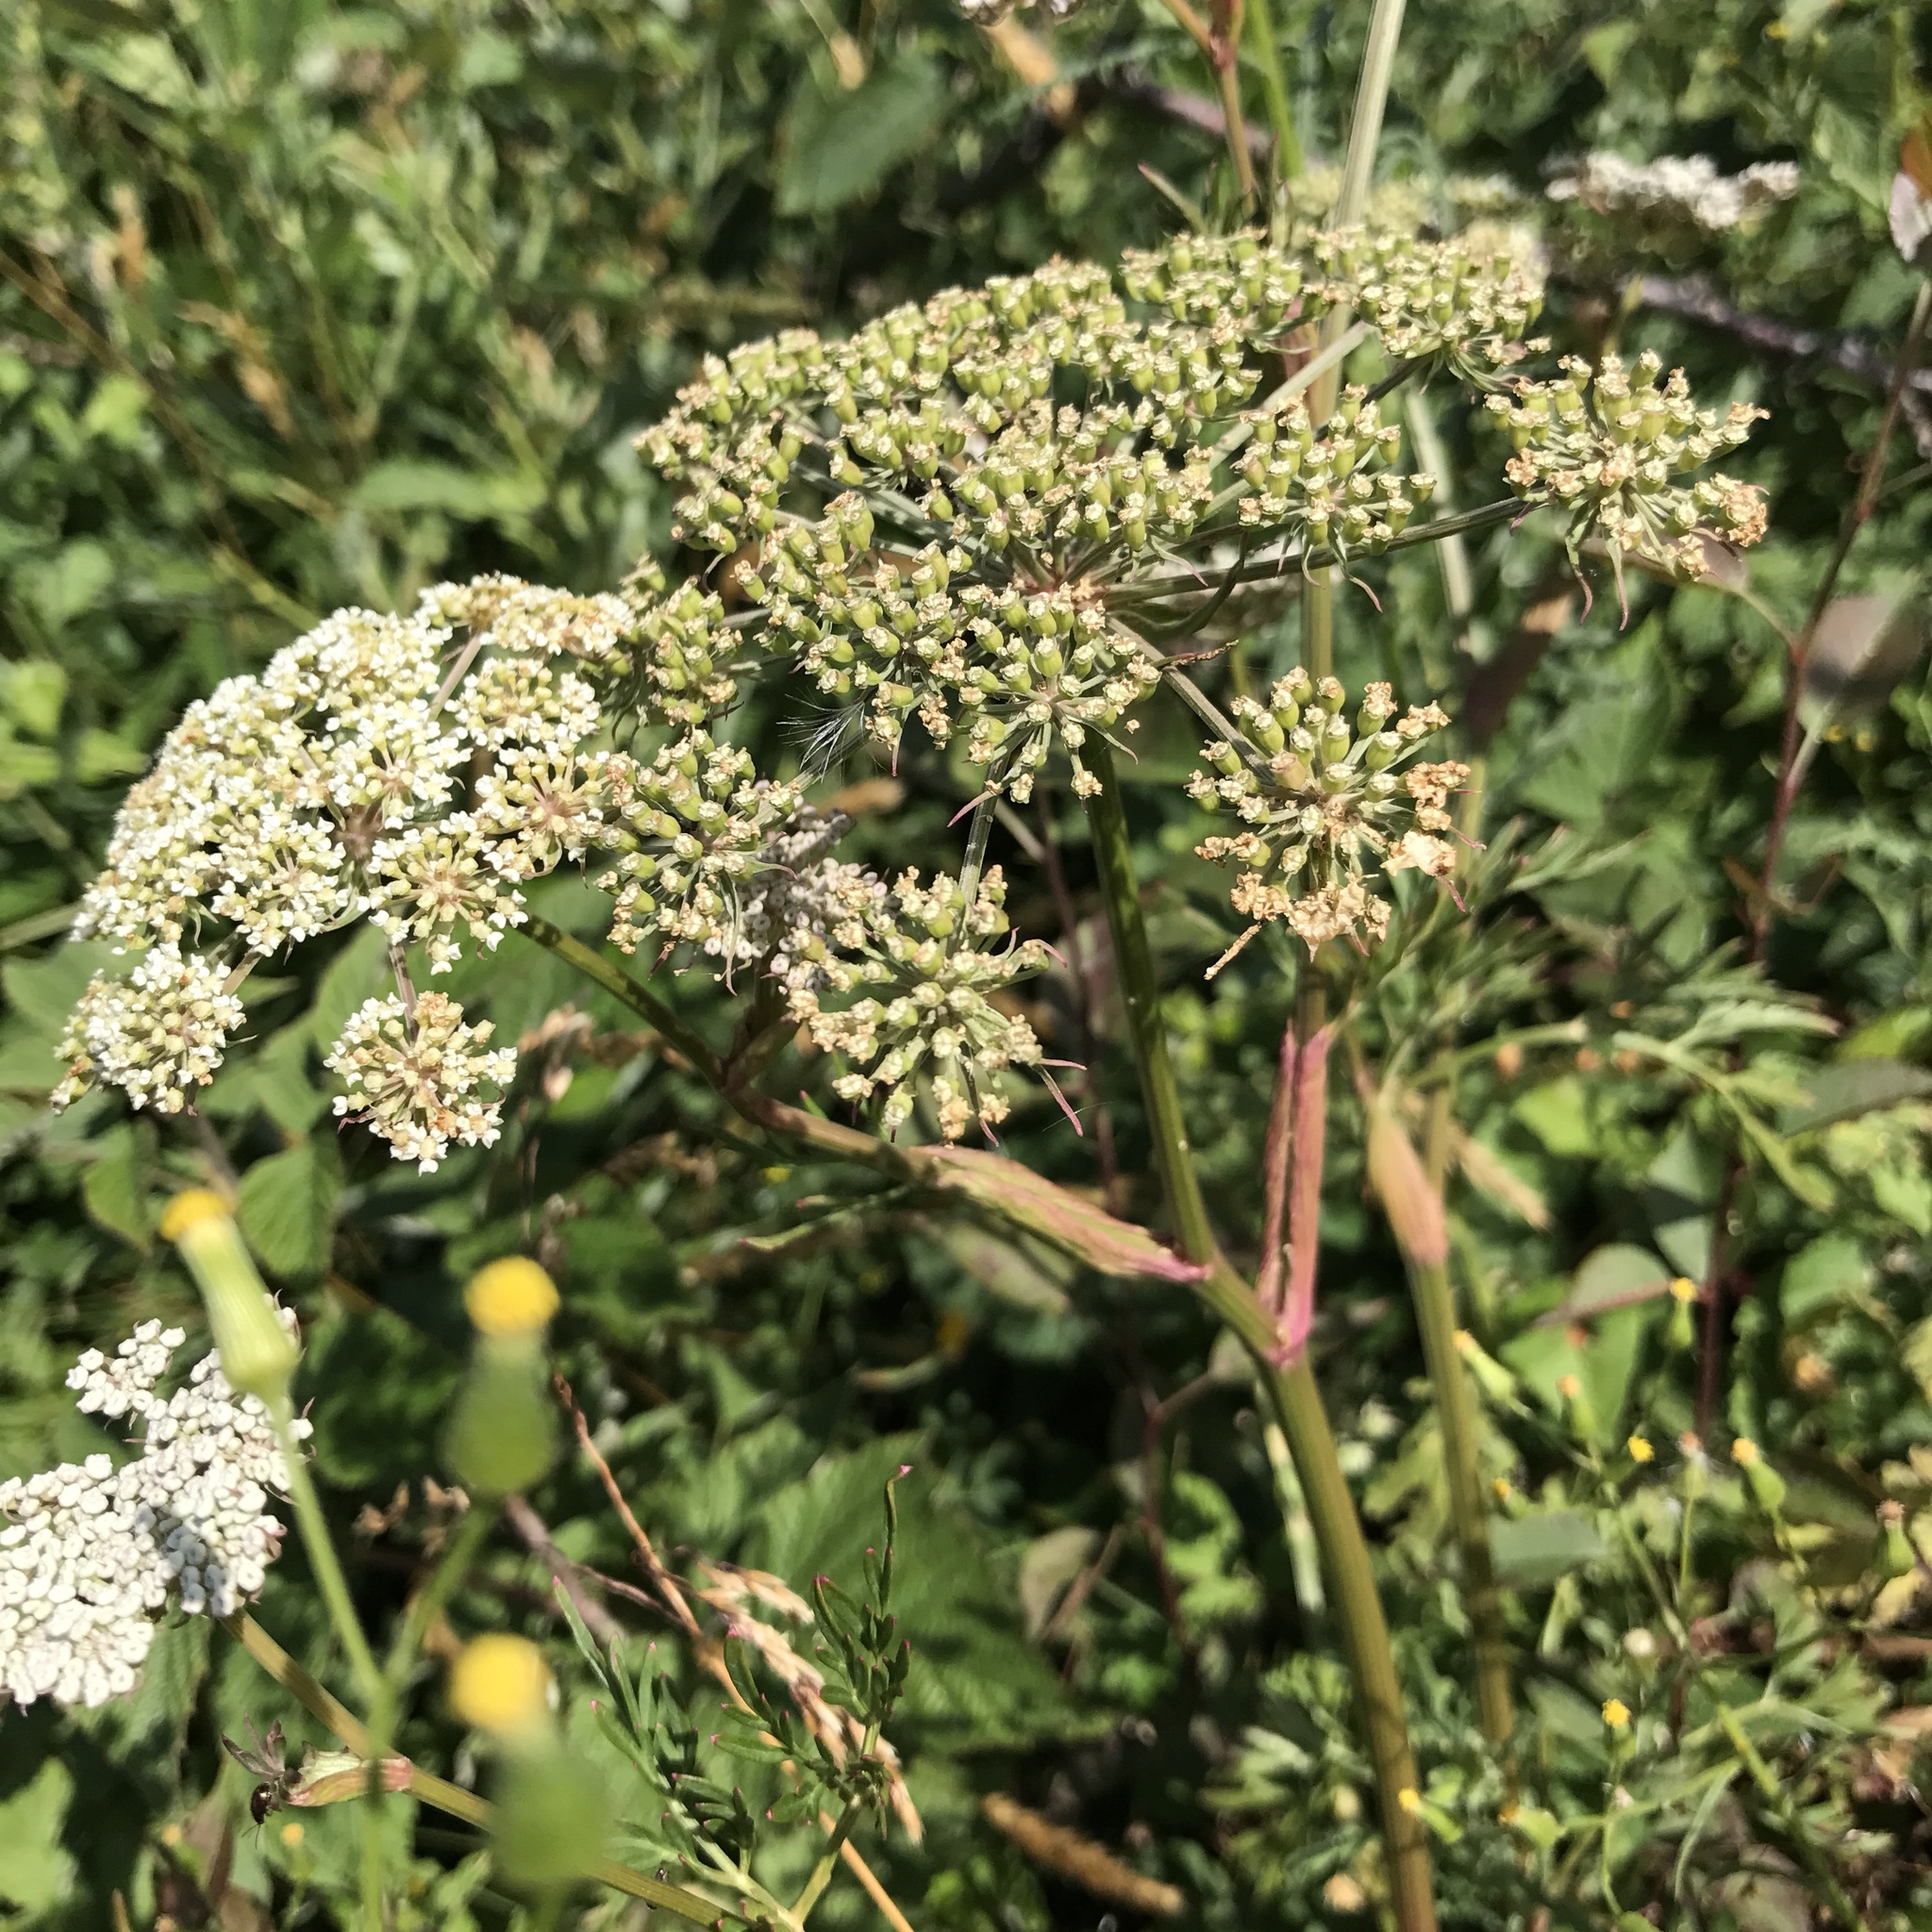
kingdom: Plantae
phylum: Tracheophyta
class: Magnoliopsida
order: Apiales
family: Apiaceae
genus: Anthriscus
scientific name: Anthriscus sylvestris
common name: Cow parsley
